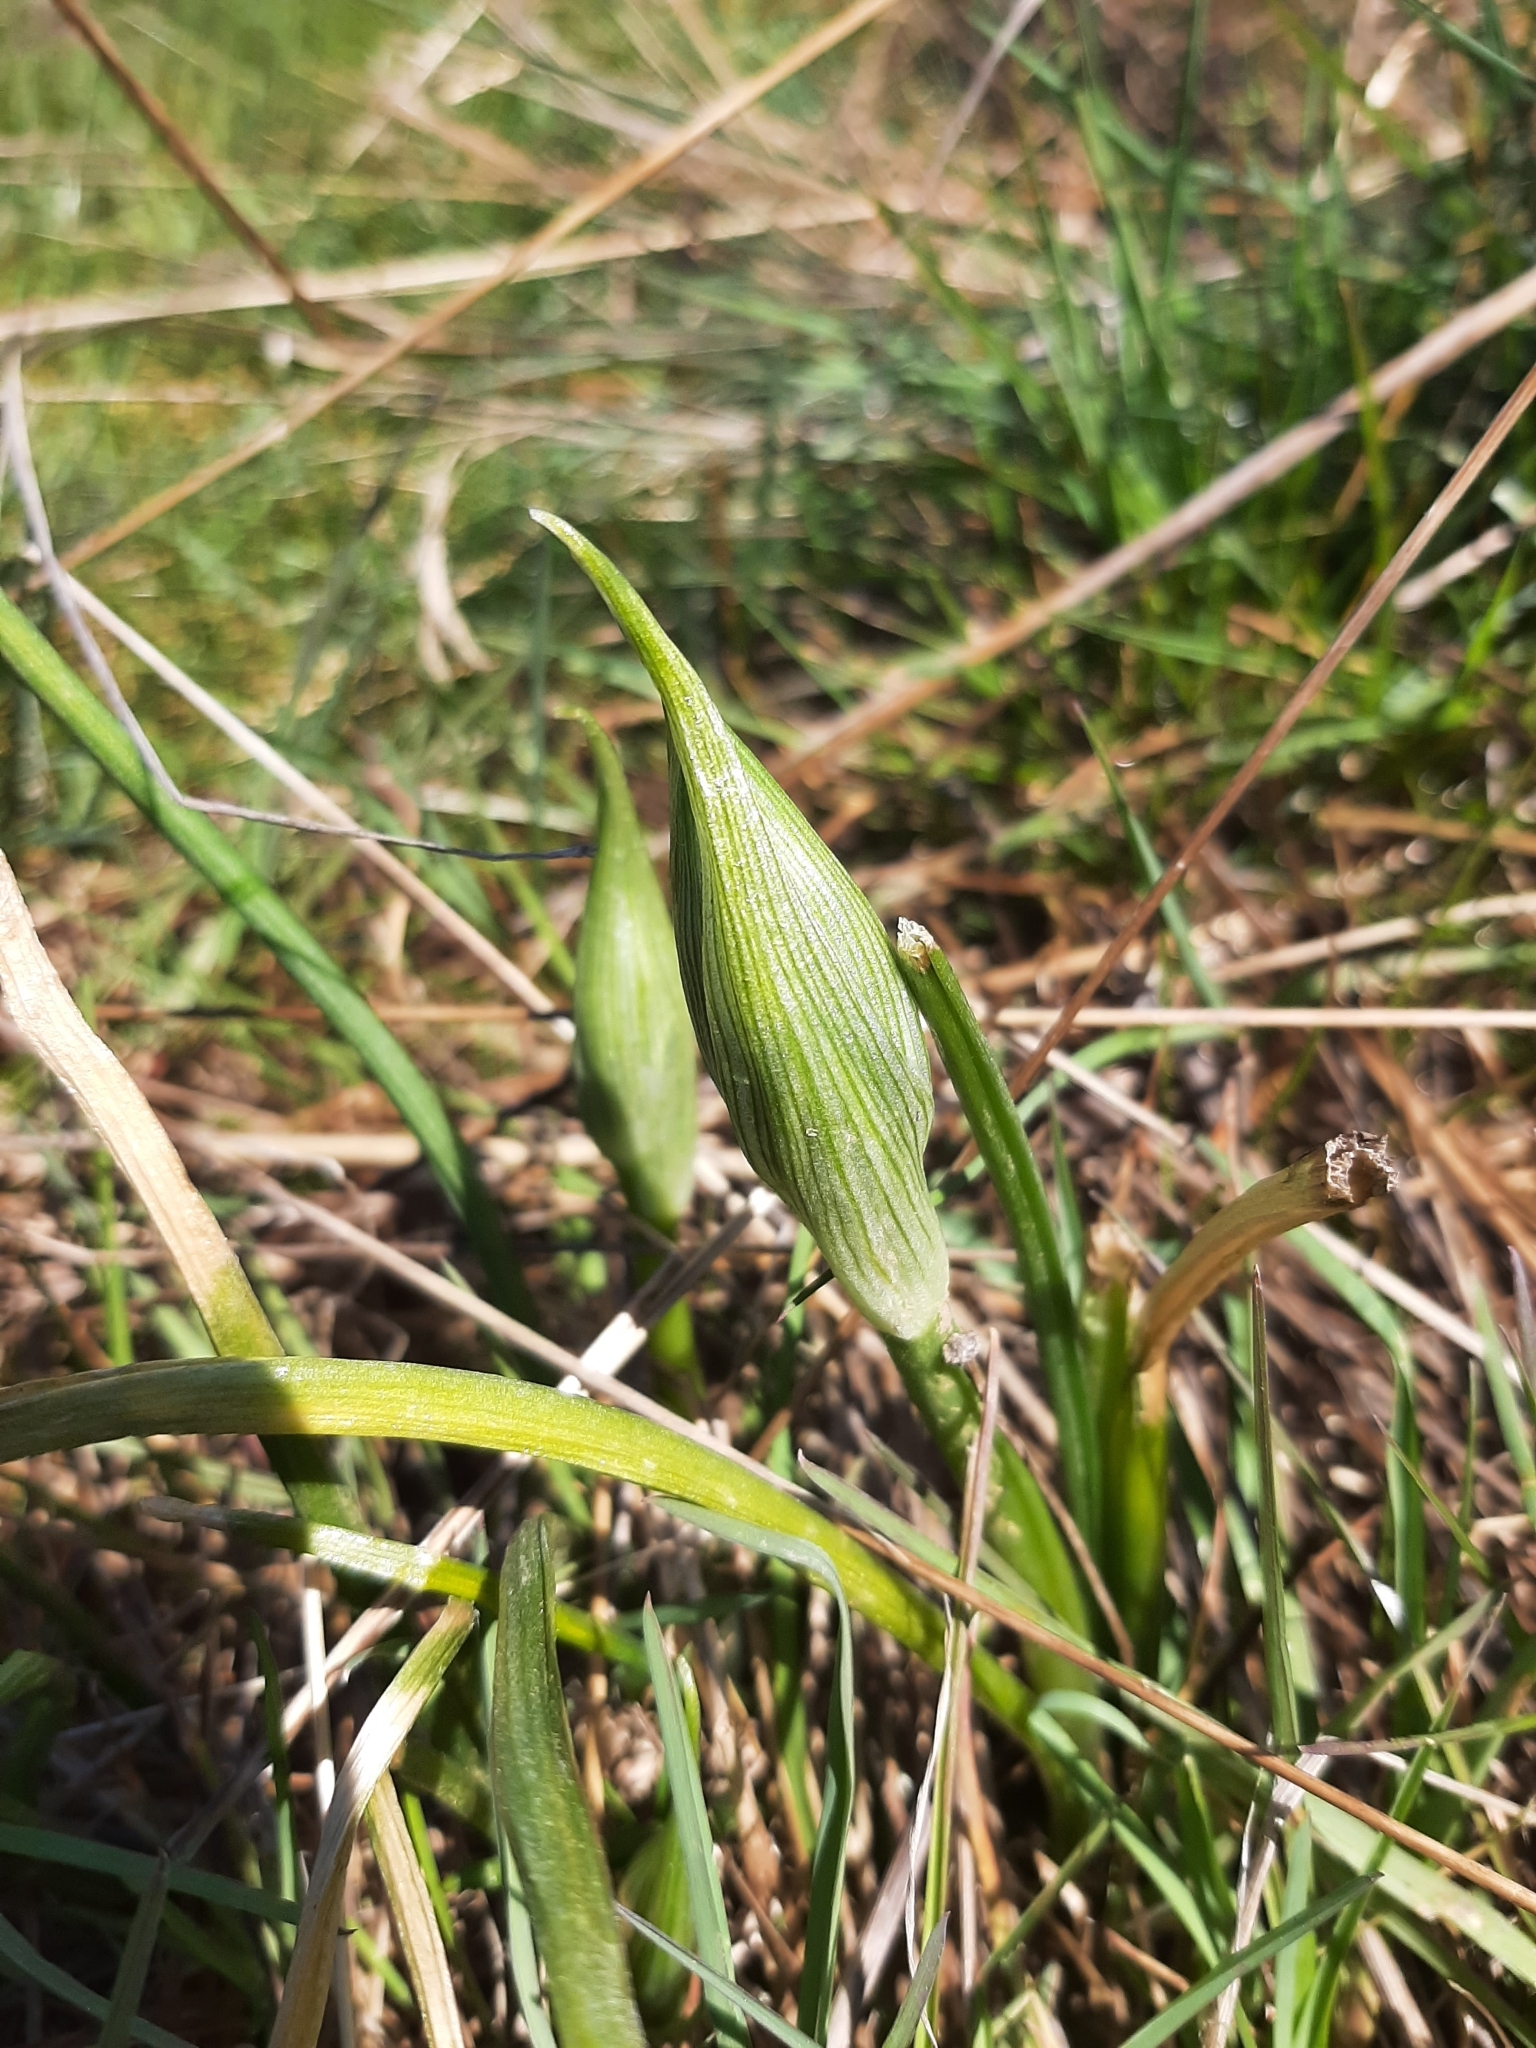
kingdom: Plantae
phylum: Tracheophyta
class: Liliopsida
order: Asparagales
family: Asparagaceae
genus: Ornithogalum
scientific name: Ornithogalum umbellatum
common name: Garden star-of-bethlehem
